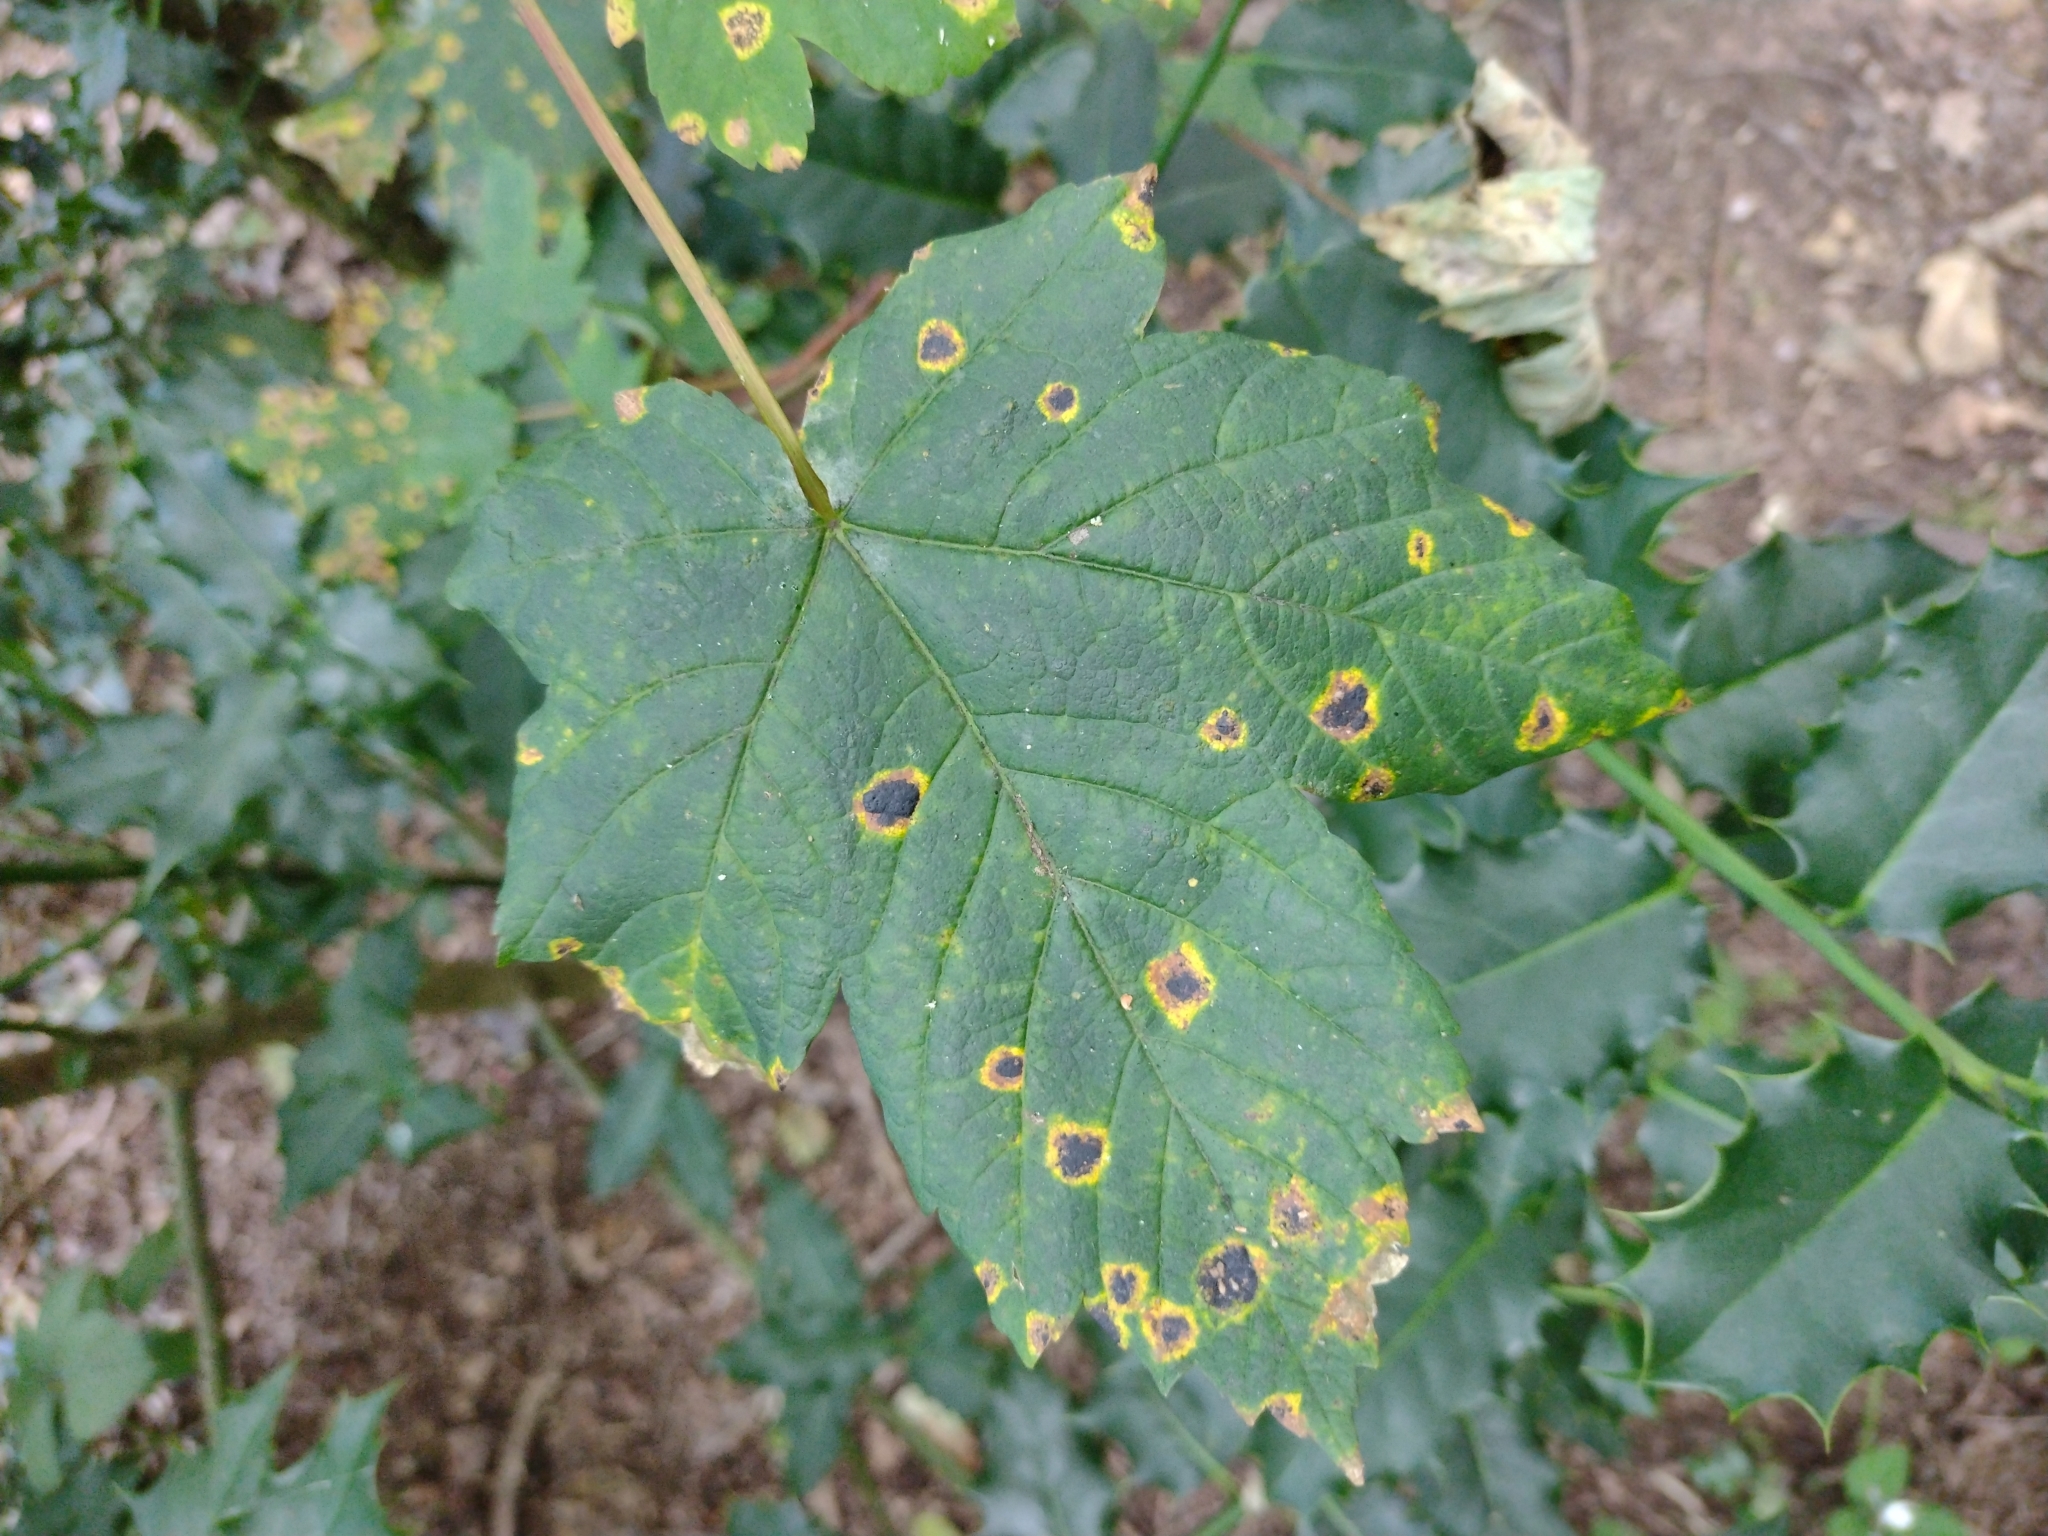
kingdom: Fungi
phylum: Ascomycota
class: Leotiomycetes
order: Rhytismatales
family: Rhytismataceae
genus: Rhytisma
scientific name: Rhytisma acerinum
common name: European tar spot
